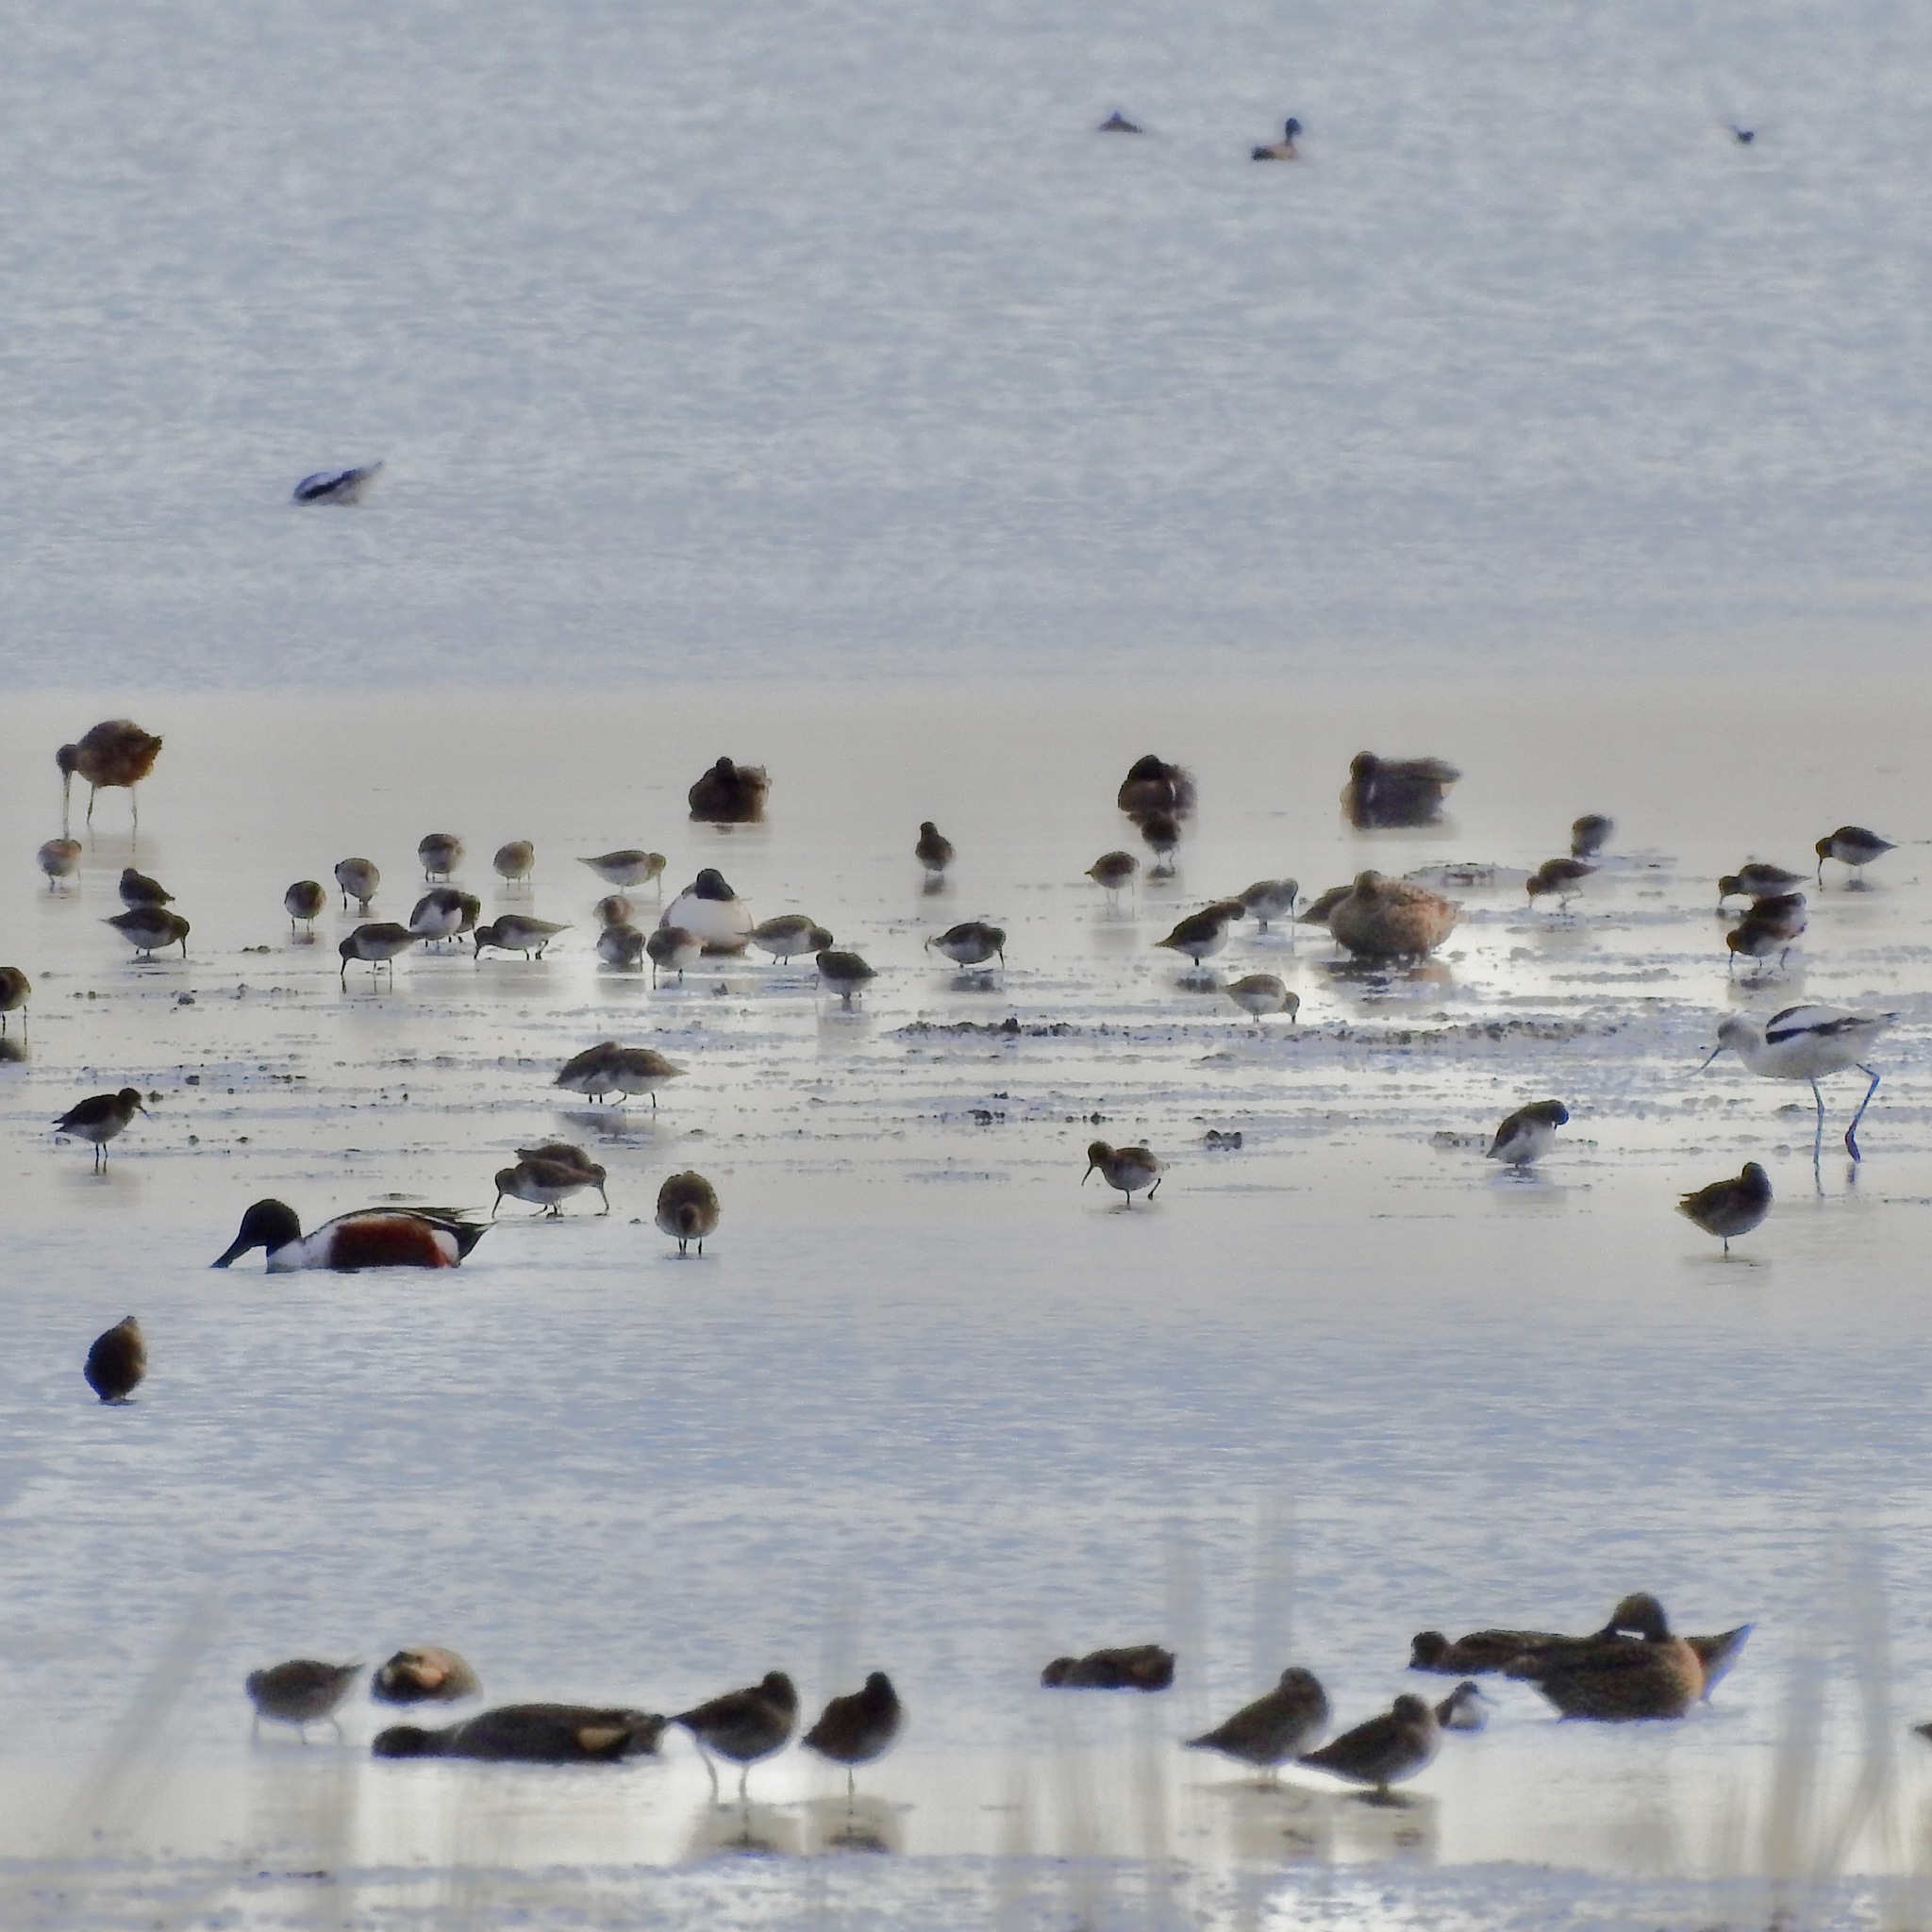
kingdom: Animalia
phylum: Chordata
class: Aves
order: Anseriformes
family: Anatidae
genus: Spatula
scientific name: Spatula clypeata
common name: Northern shoveler
